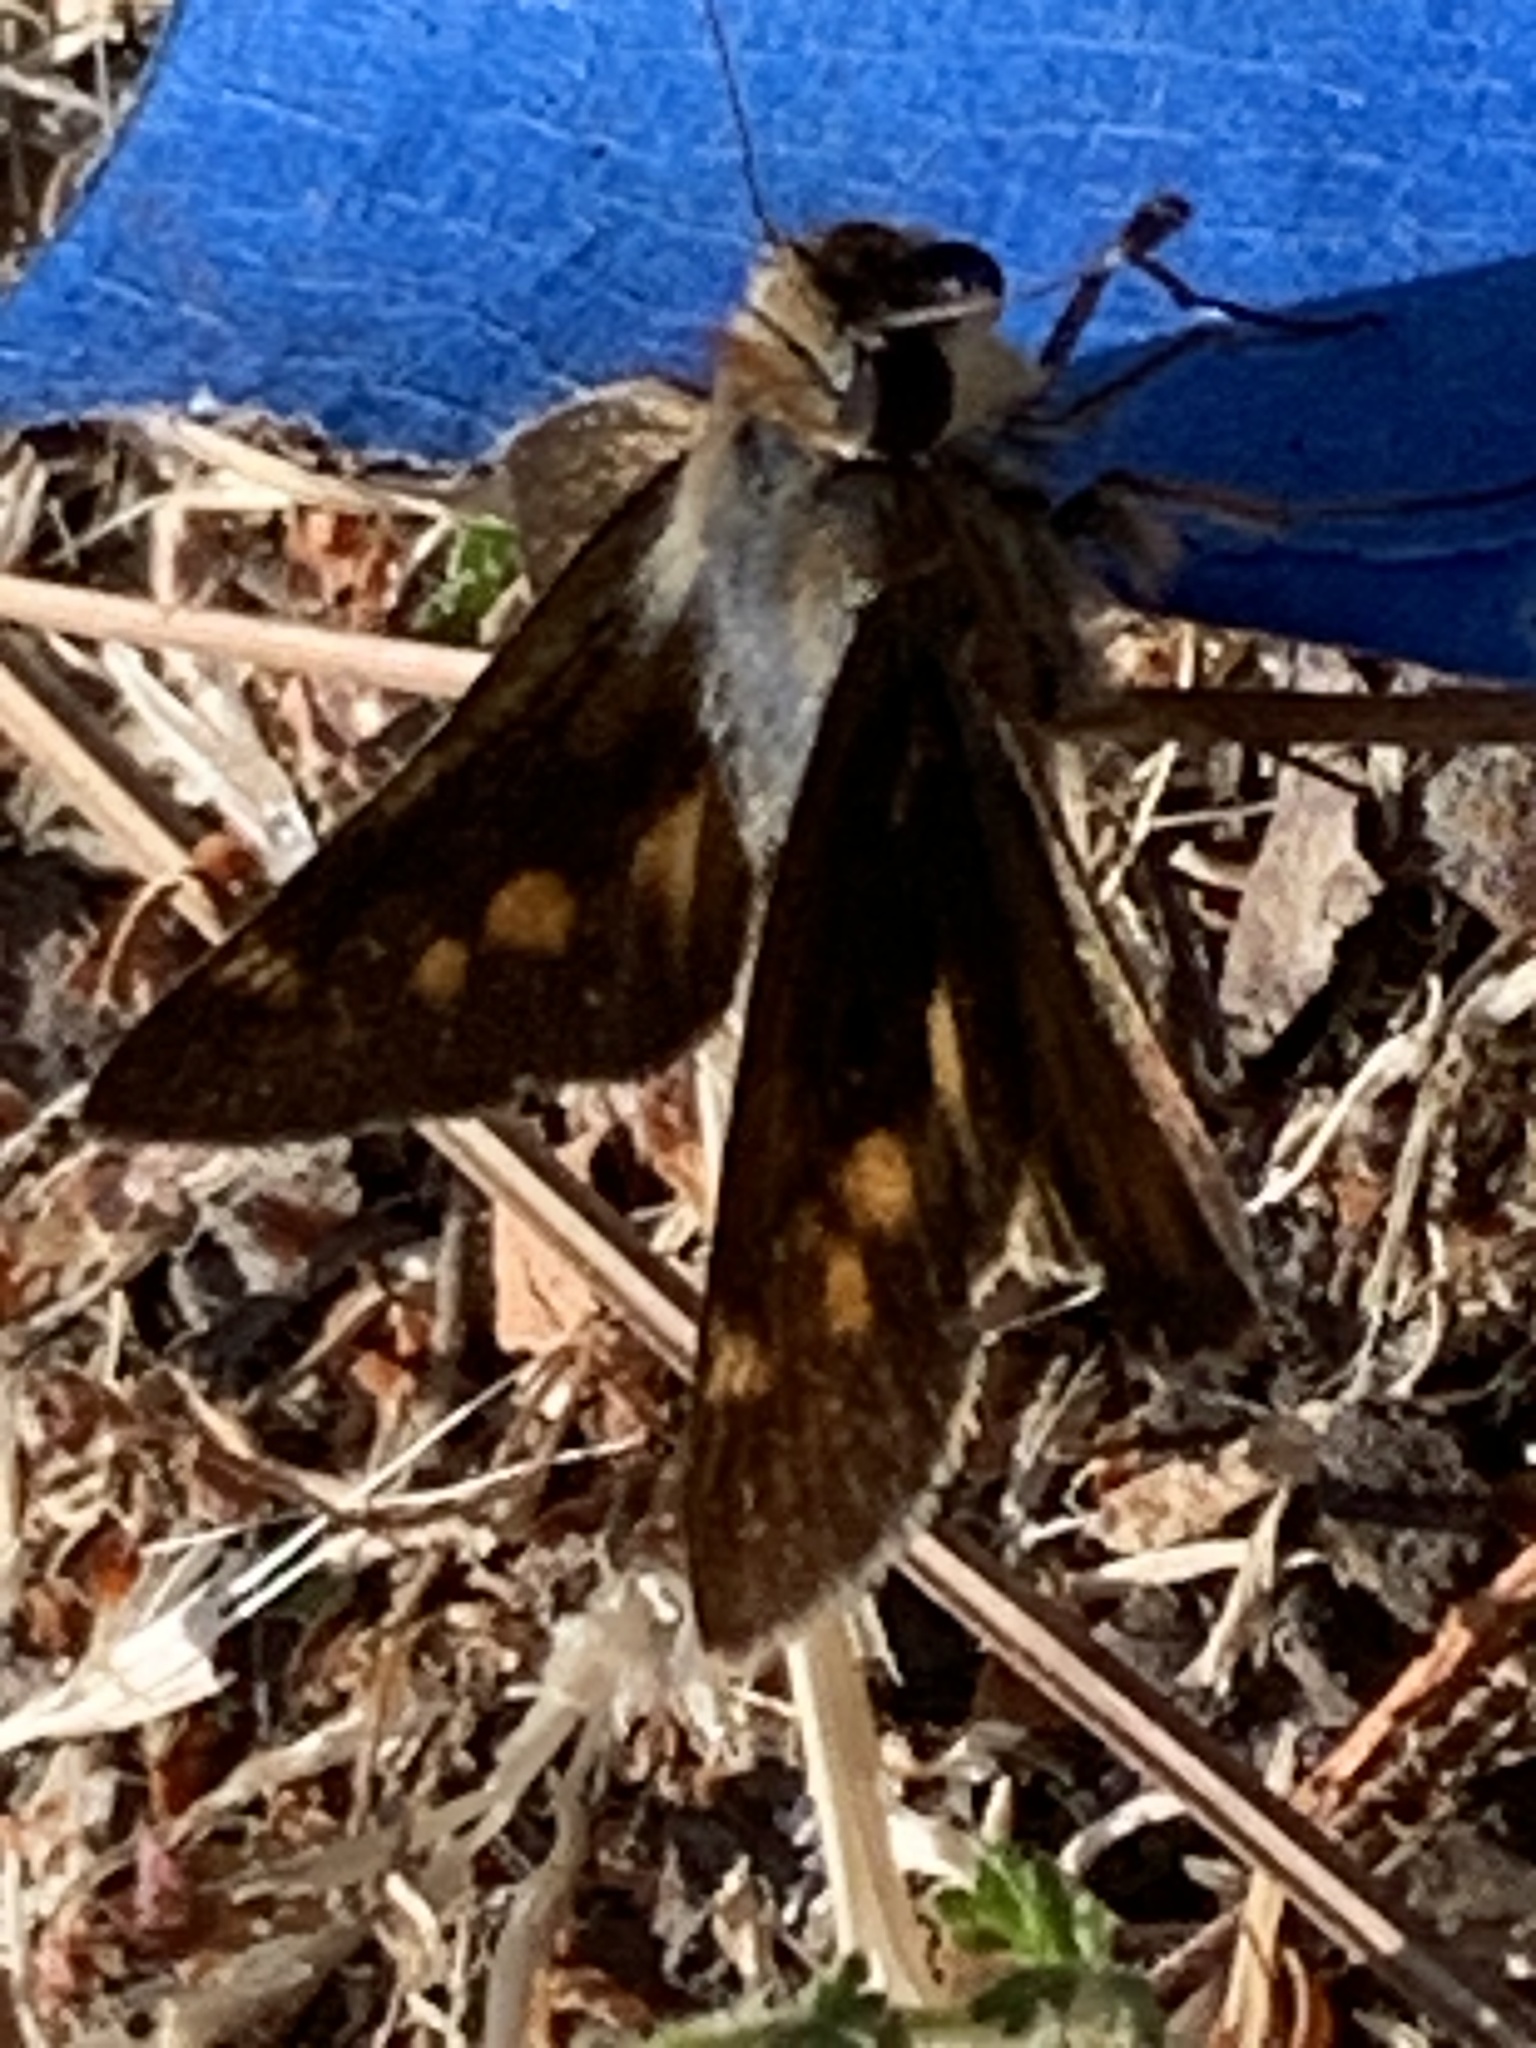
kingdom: Animalia
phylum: Arthropoda
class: Insecta
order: Lepidoptera
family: Hesperiidae
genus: Lon
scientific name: Lon melane
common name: Umber skipper
